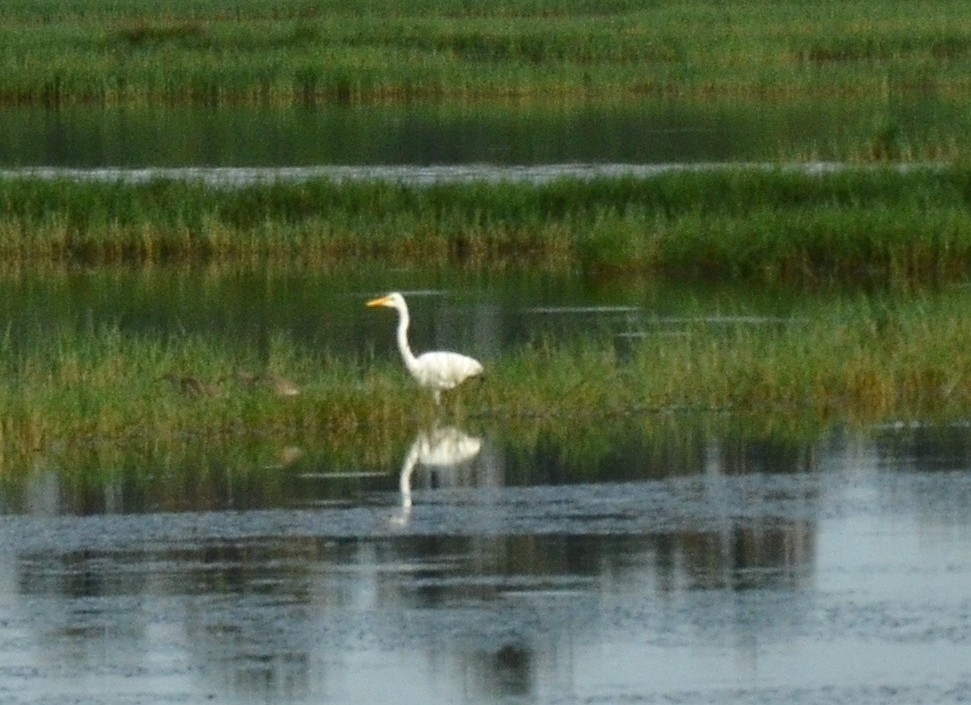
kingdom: Animalia
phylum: Chordata
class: Aves
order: Pelecaniformes
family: Ardeidae
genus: Ardea
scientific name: Ardea alba
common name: Great egret
